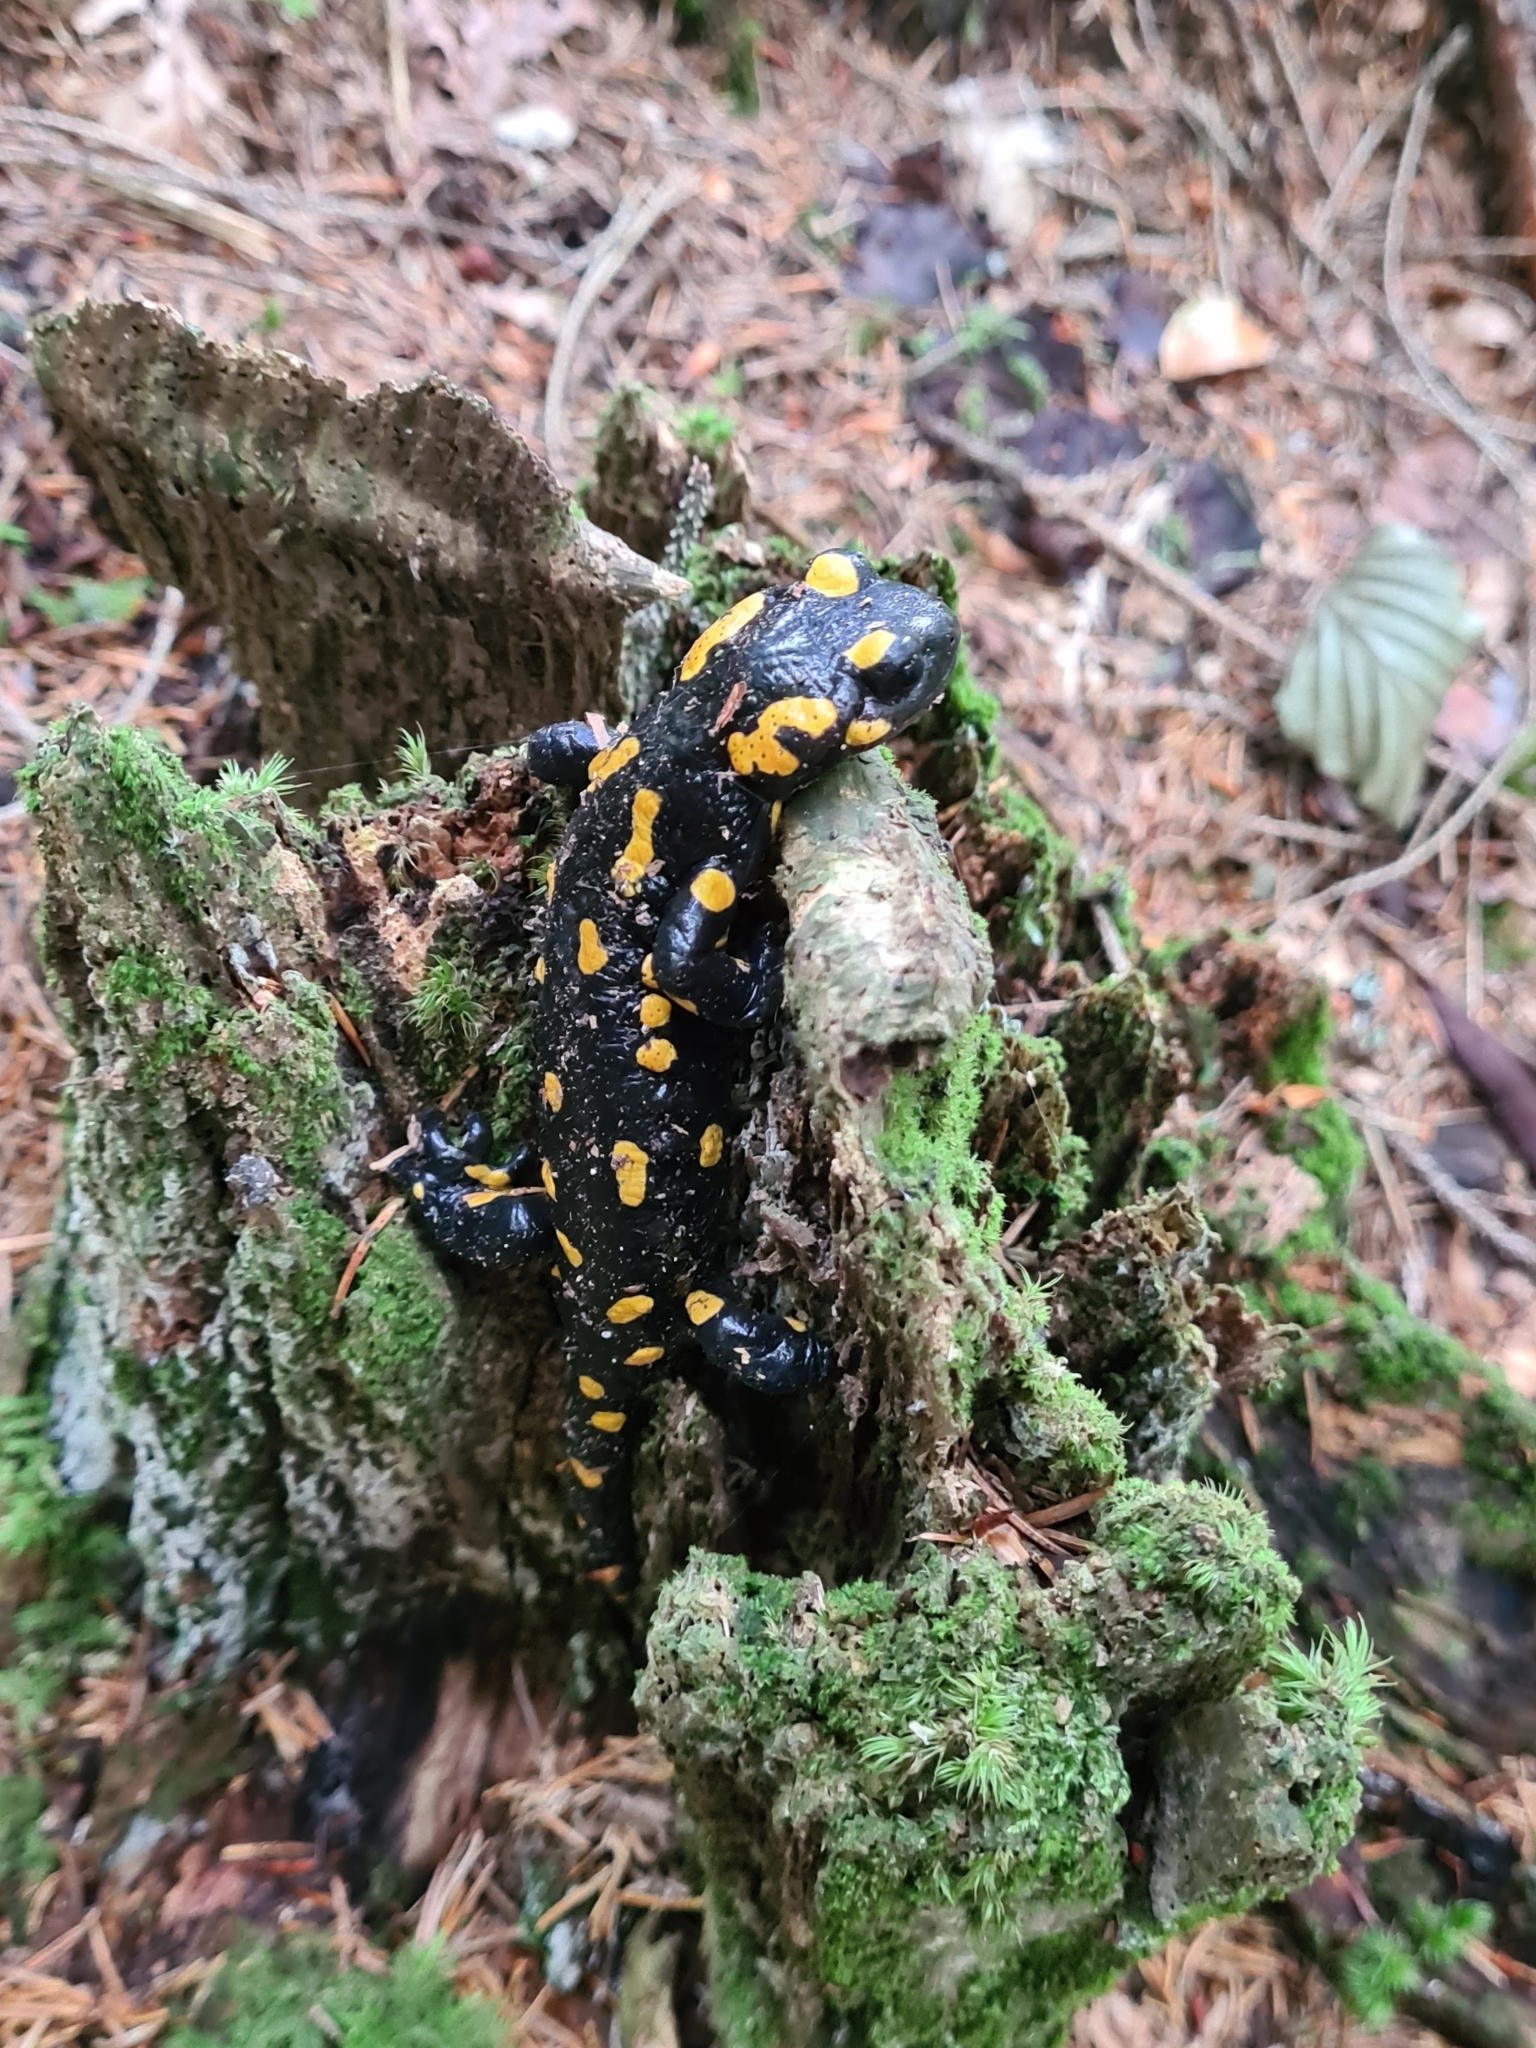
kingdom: Animalia
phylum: Chordata
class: Amphibia
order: Caudata
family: Salamandridae
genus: Salamandra
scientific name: Salamandra salamandra
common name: Fire salamander
